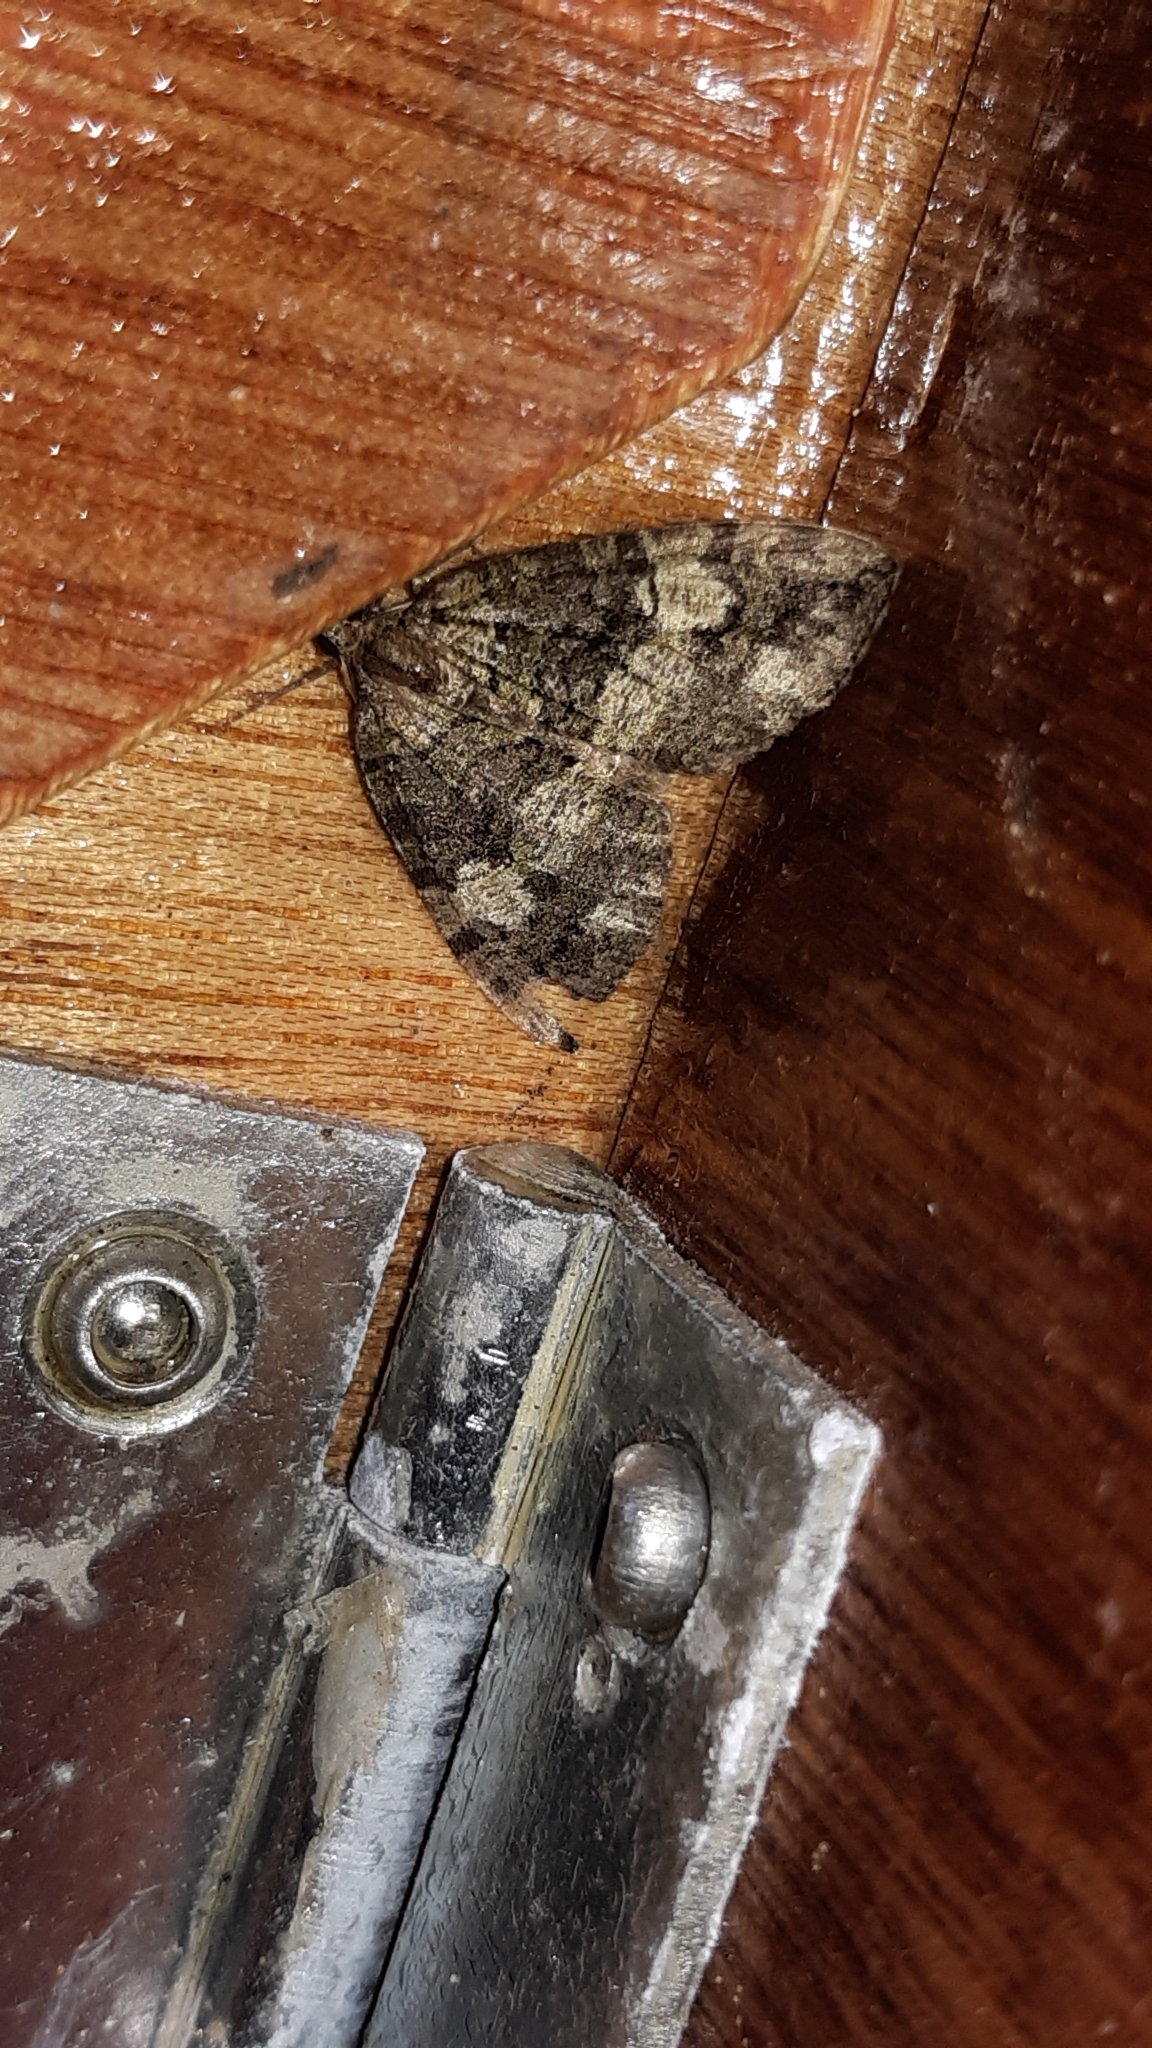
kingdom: Animalia
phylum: Arthropoda
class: Insecta
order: Lepidoptera
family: Geometridae
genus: Hydriomena
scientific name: Hydriomena furcata
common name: July highflyer
